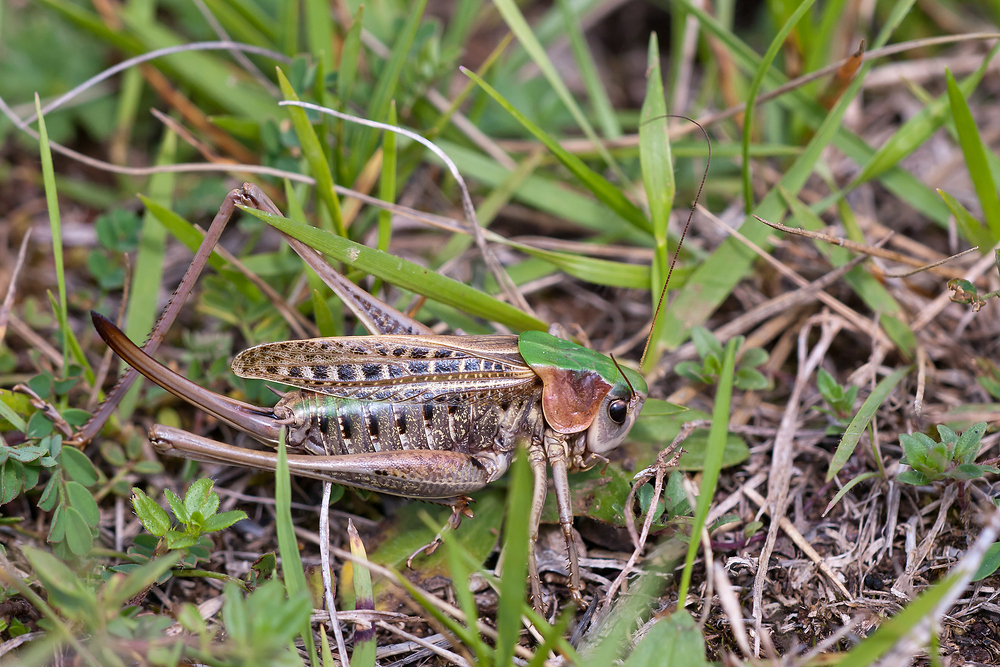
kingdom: Animalia
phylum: Arthropoda
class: Insecta
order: Orthoptera
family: Tettigoniidae
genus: Decticus
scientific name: Decticus verrucivorus
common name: Wart-biter
